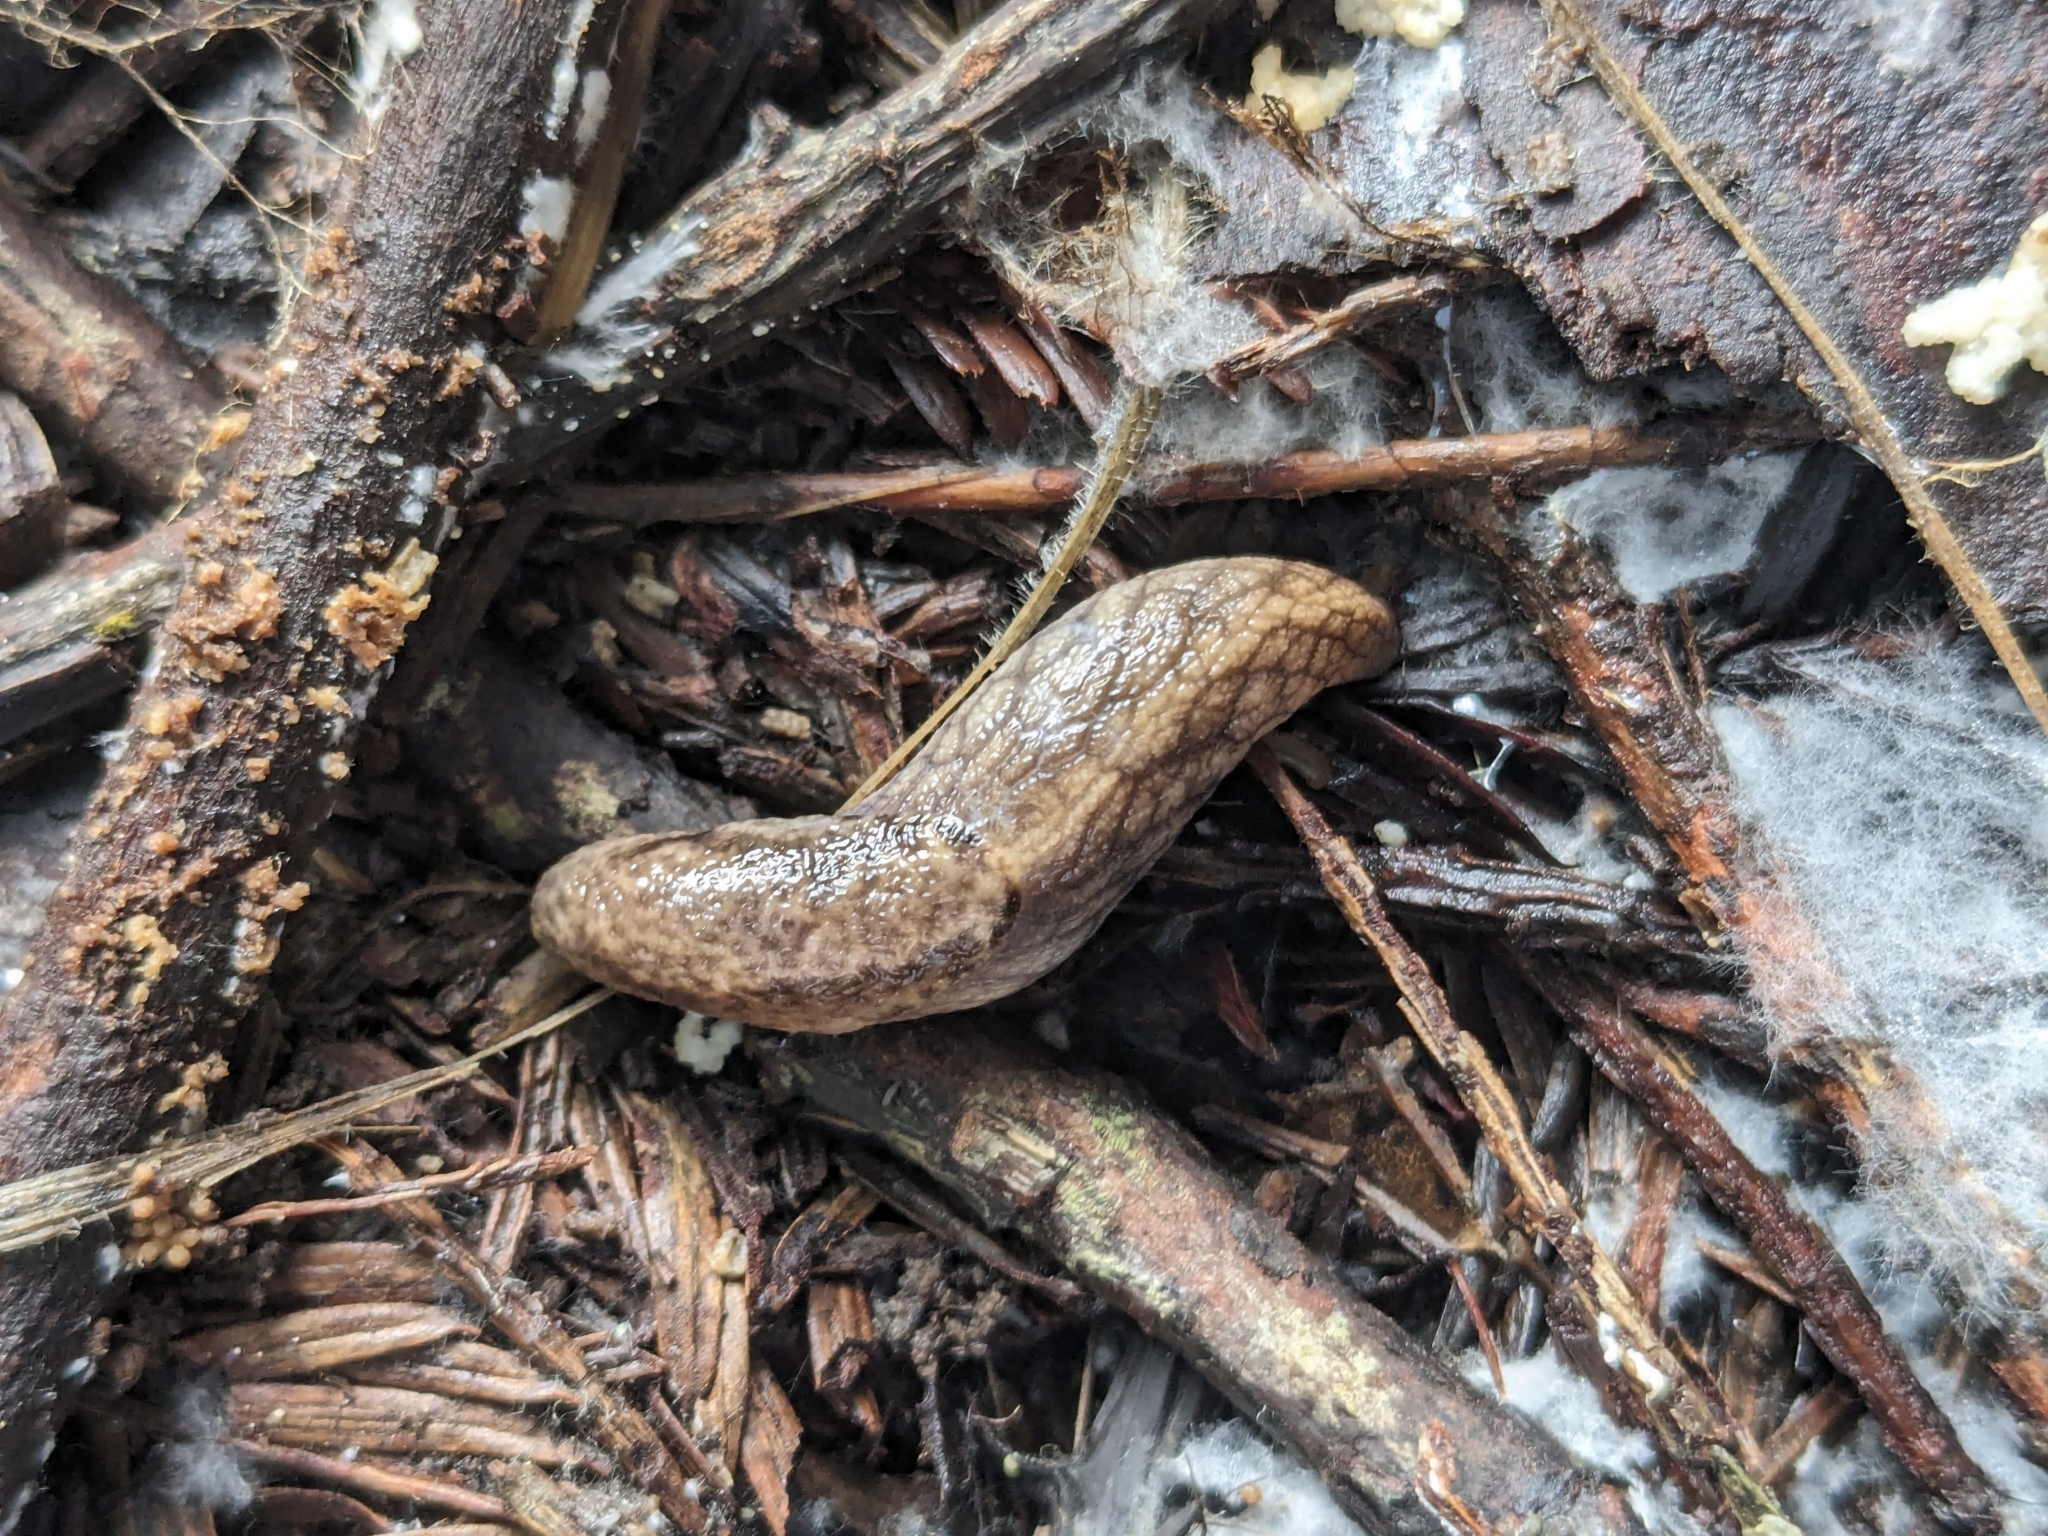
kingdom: Animalia
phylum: Mollusca
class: Gastropoda
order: Stylommatophora
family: Ariolimacidae
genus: Prophysaon
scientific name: Prophysaon andersonii
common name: Reticulate taildropper
